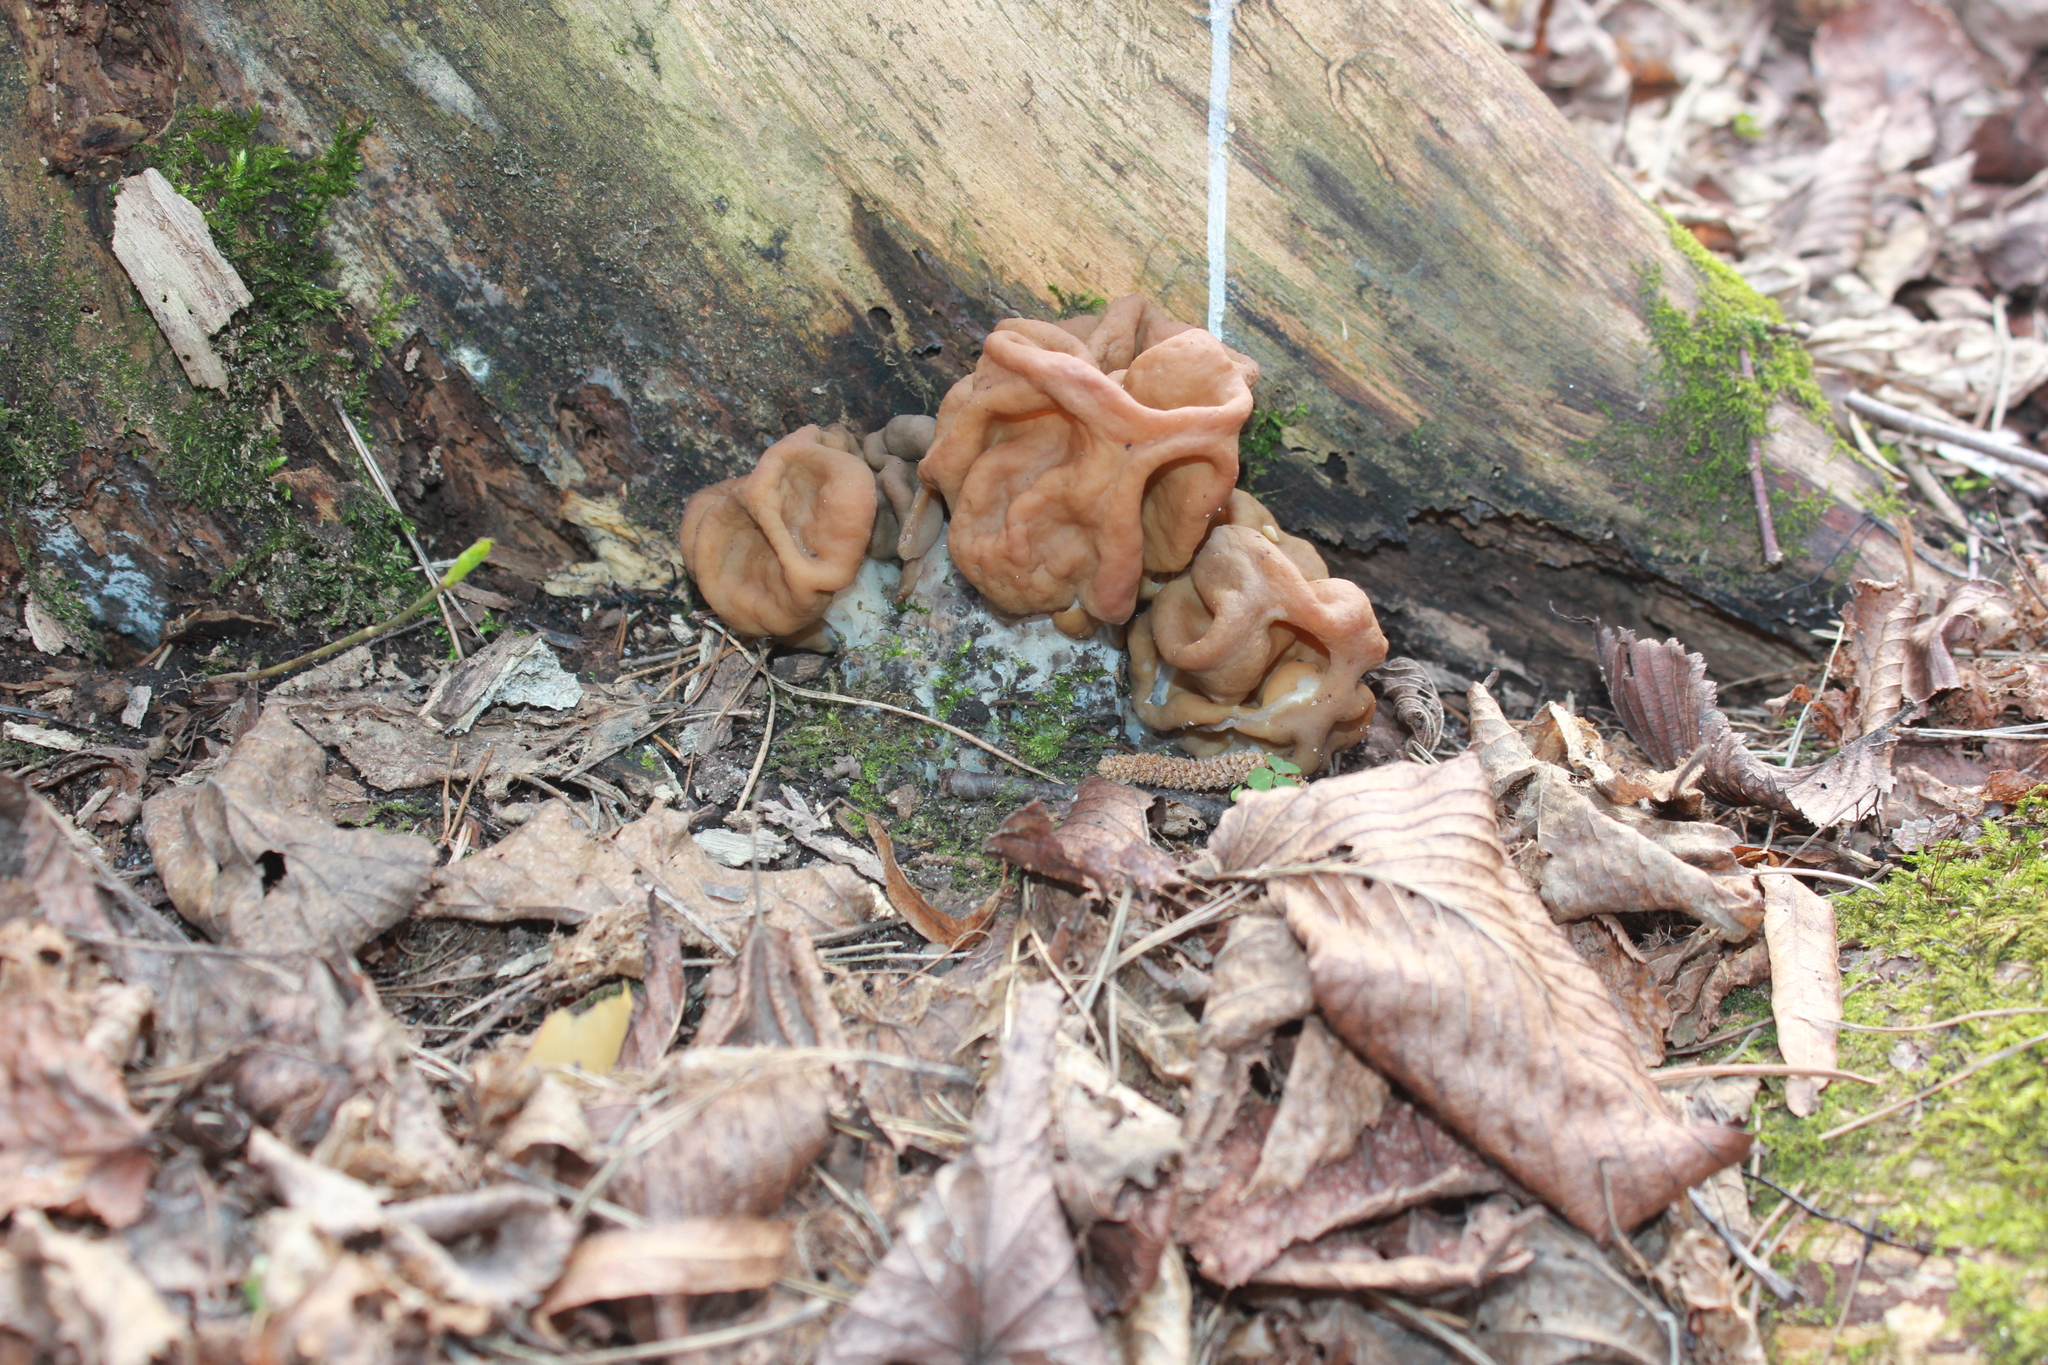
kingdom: Fungi
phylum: Ascomycota
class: Pezizomycetes
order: Pezizales
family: Discinaceae
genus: Gyromitra
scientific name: Gyromitra gigas
